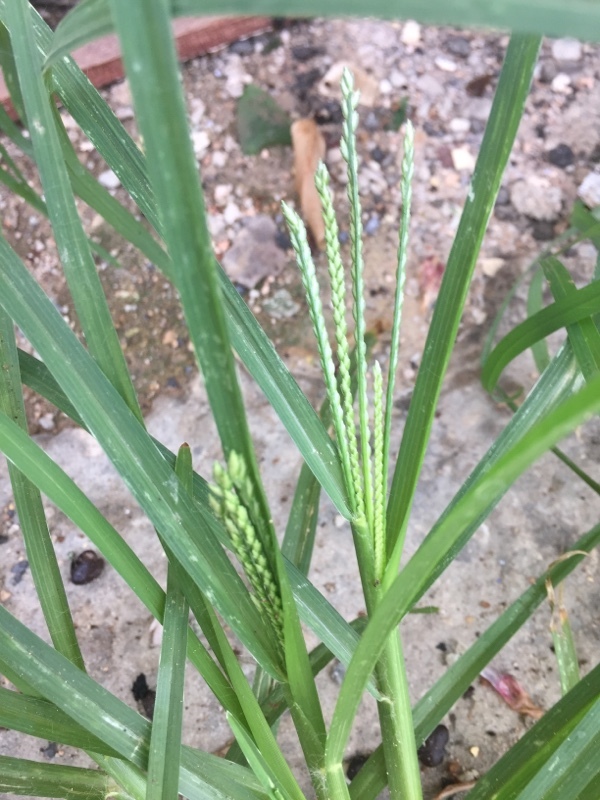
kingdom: Plantae
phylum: Tracheophyta
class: Liliopsida
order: Poales
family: Poaceae
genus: Eleusine
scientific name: Eleusine indica
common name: Yard-grass
